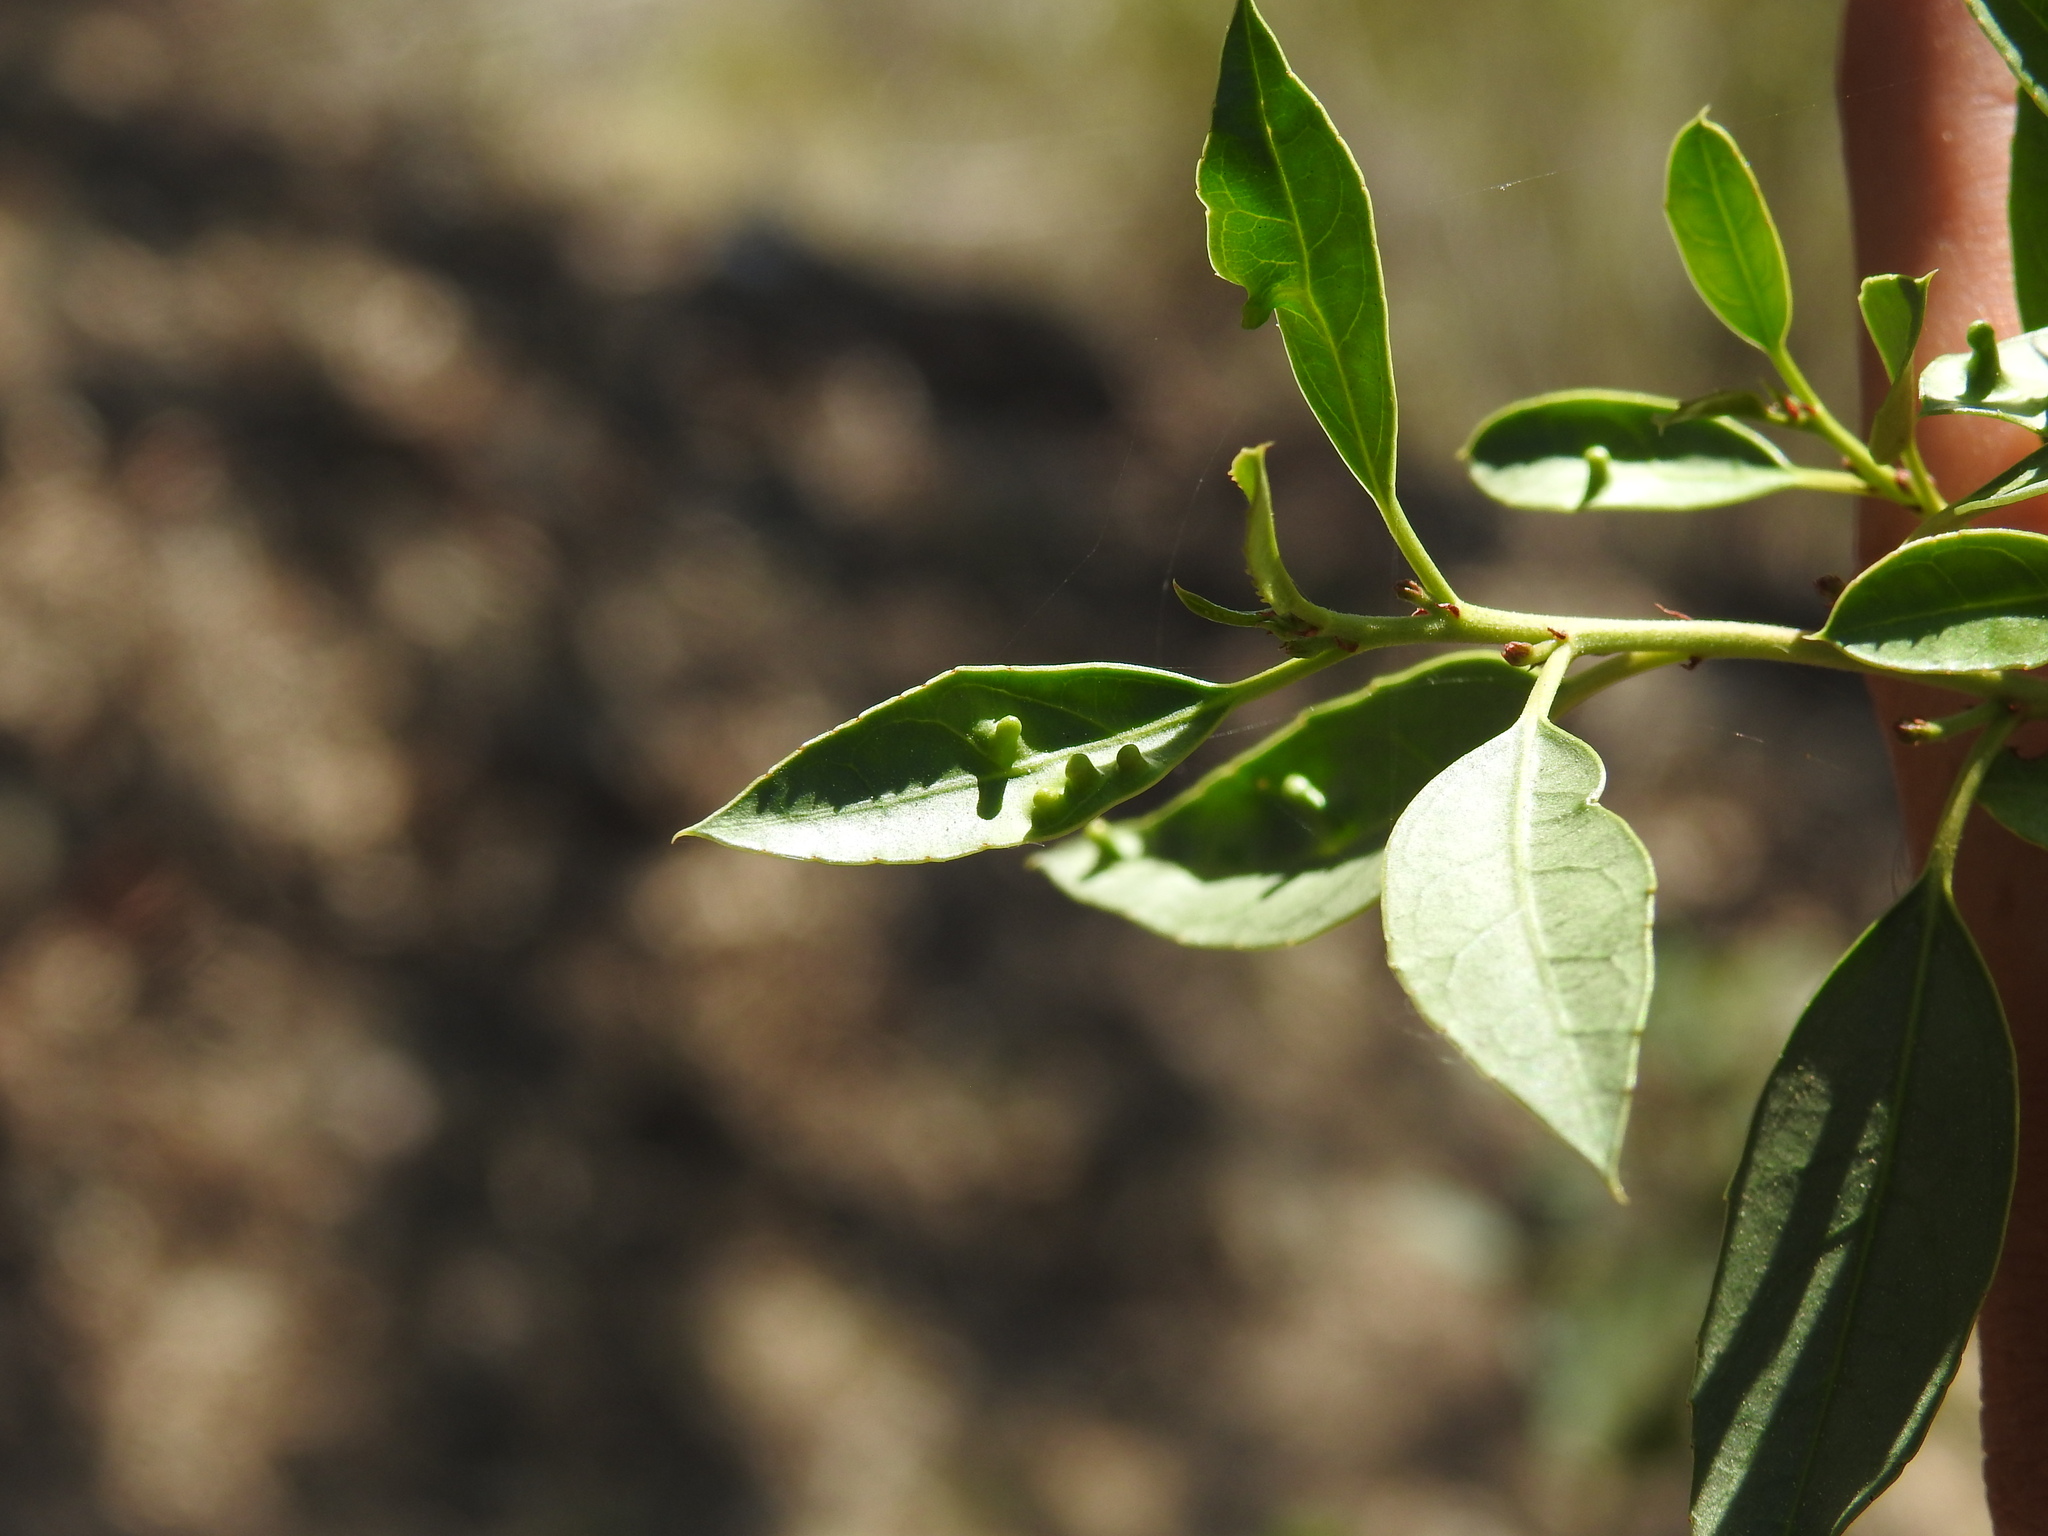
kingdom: Animalia
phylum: Arthropoda
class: Insecta
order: Hemiptera
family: Triozidae
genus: Trioza
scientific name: Trioza kiefferi
